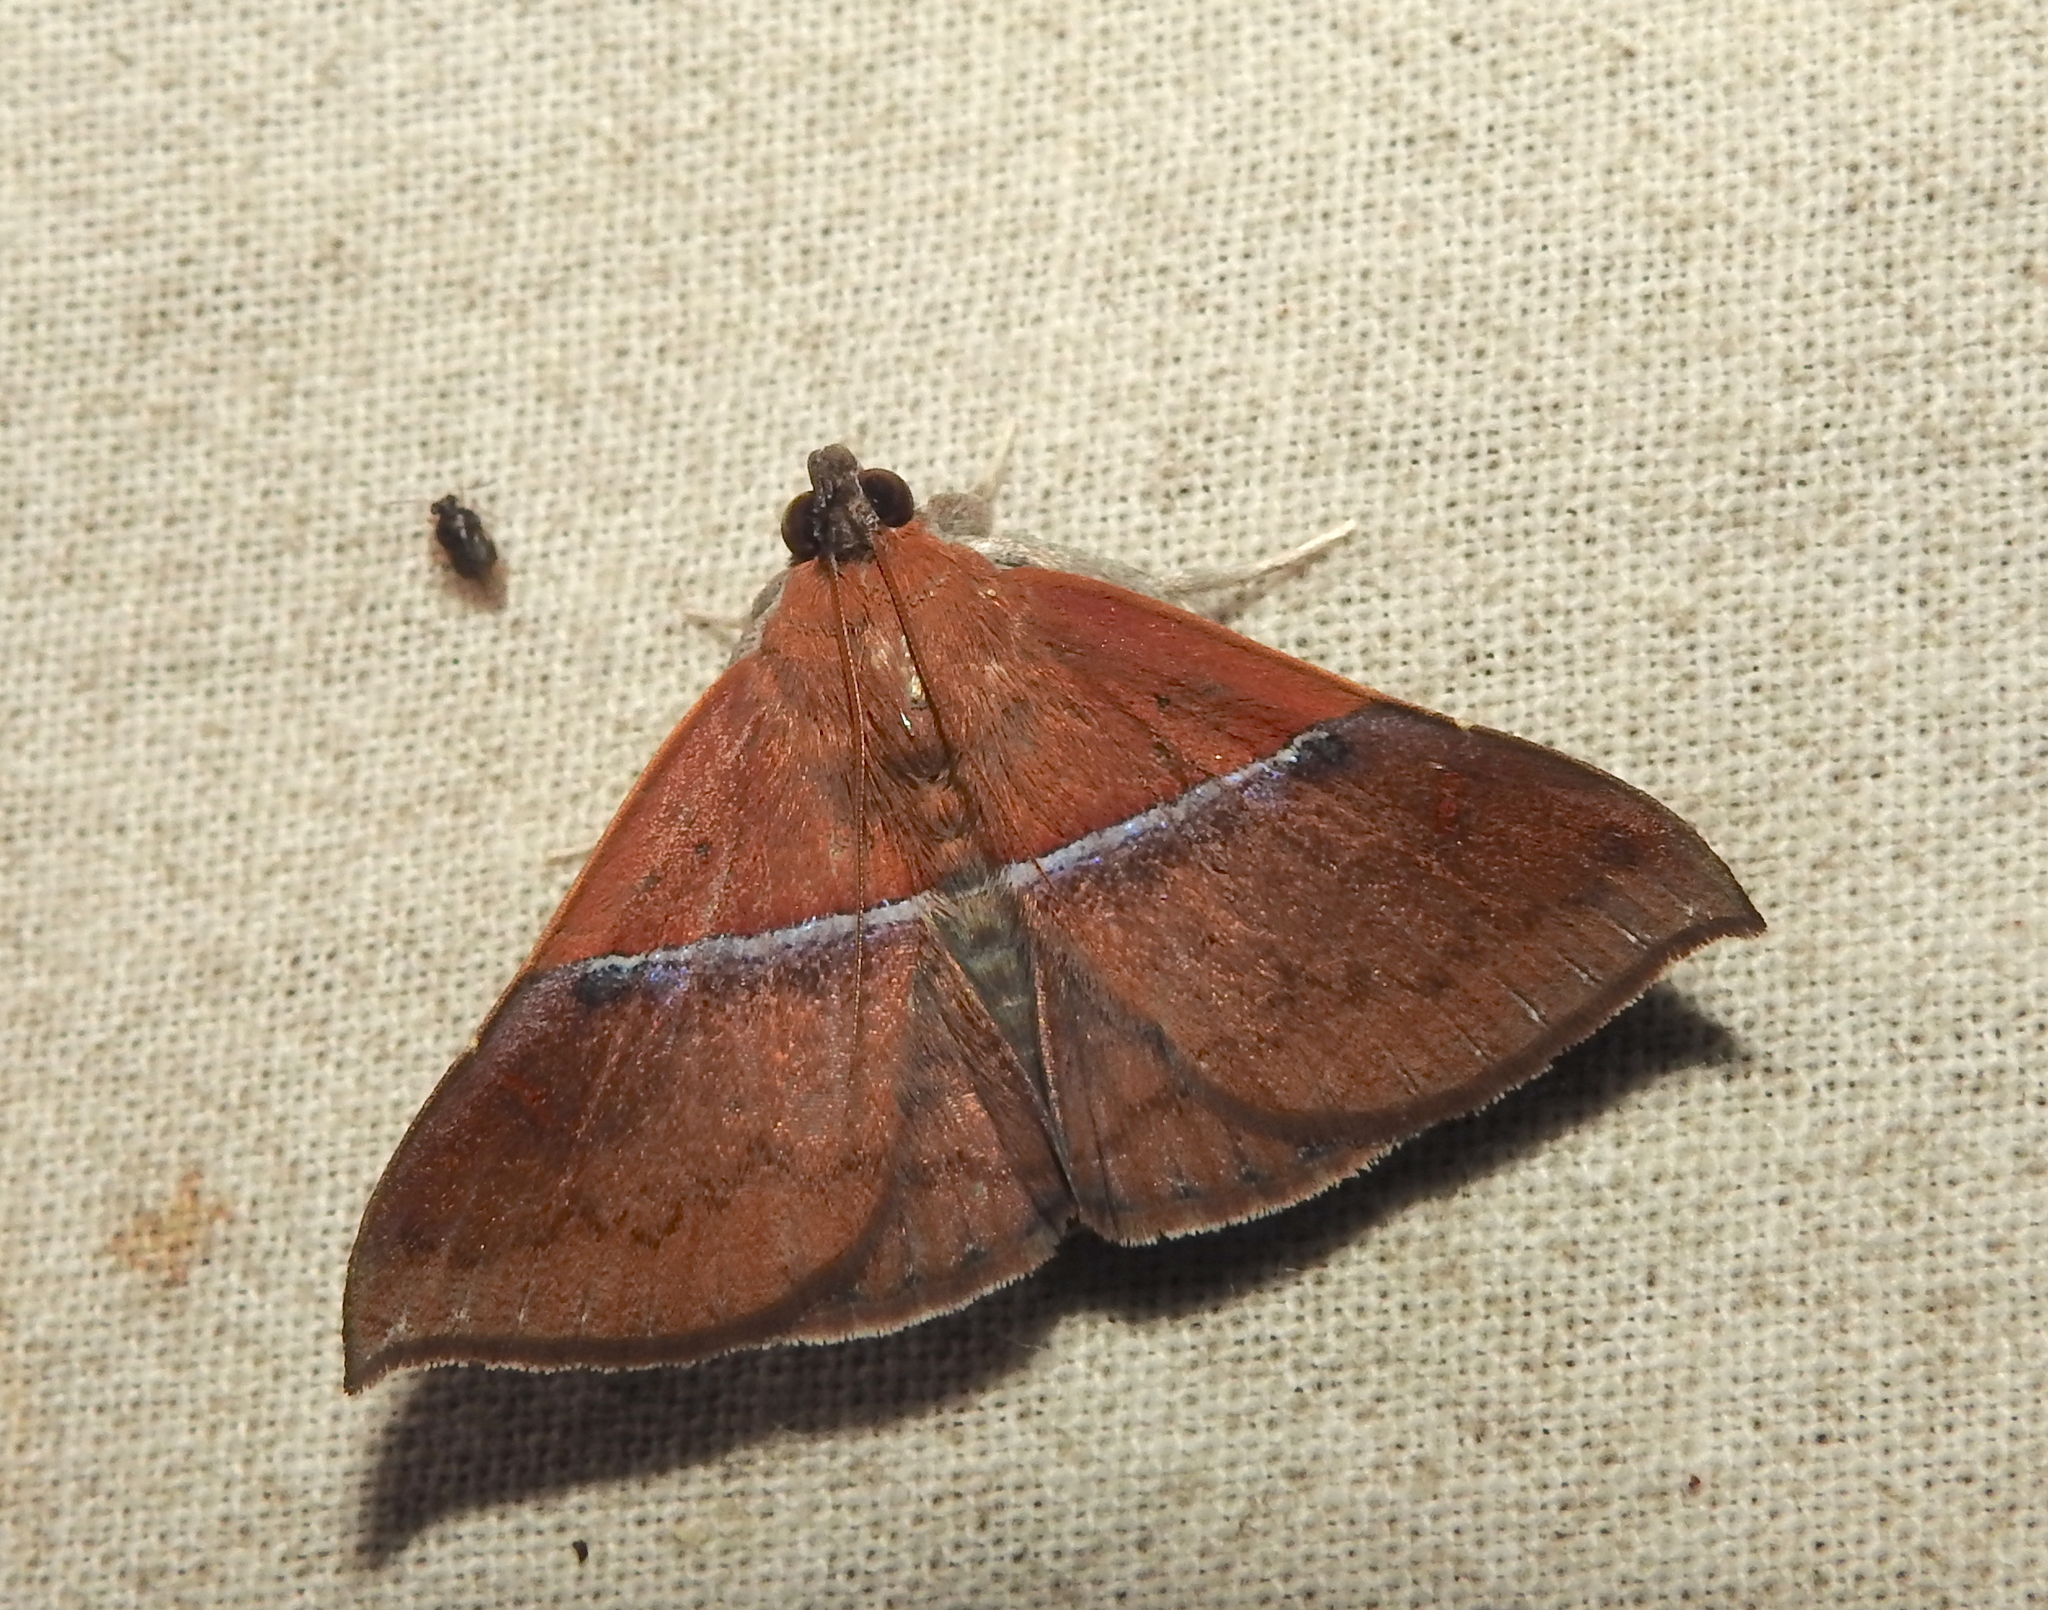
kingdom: Animalia
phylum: Arthropoda
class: Insecta
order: Lepidoptera
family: Erebidae
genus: Sympis
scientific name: Sympis rufibasis
